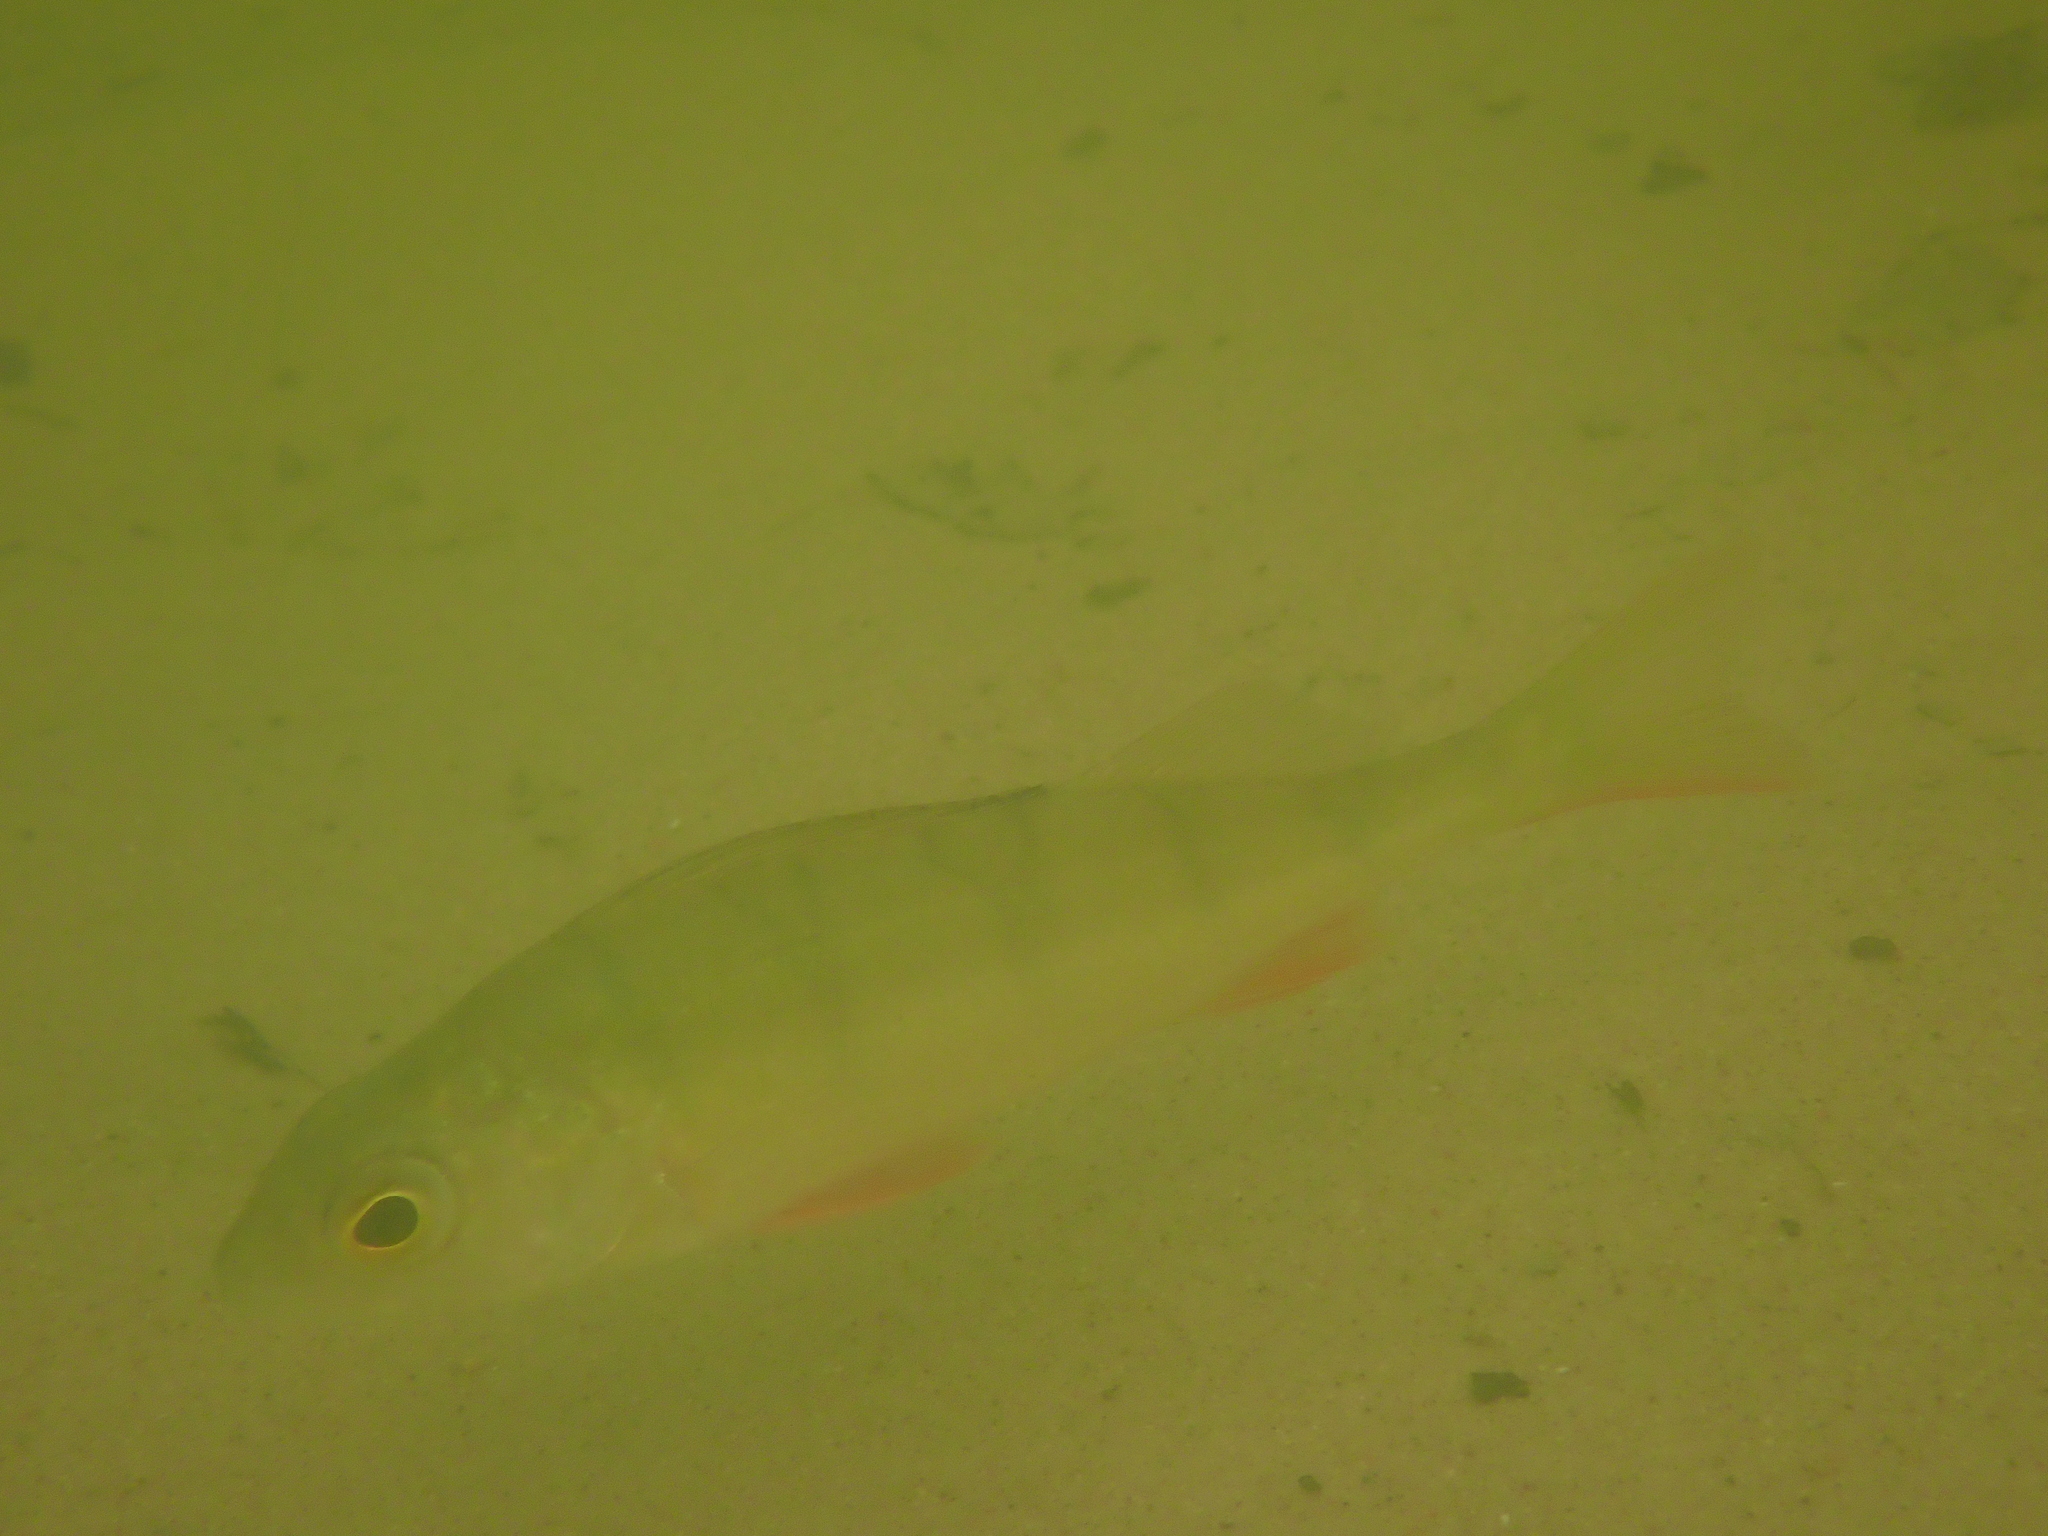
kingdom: Animalia
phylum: Chordata
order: Perciformes
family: Percidae
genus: Perca
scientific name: Perca fluviatilis
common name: Perch
